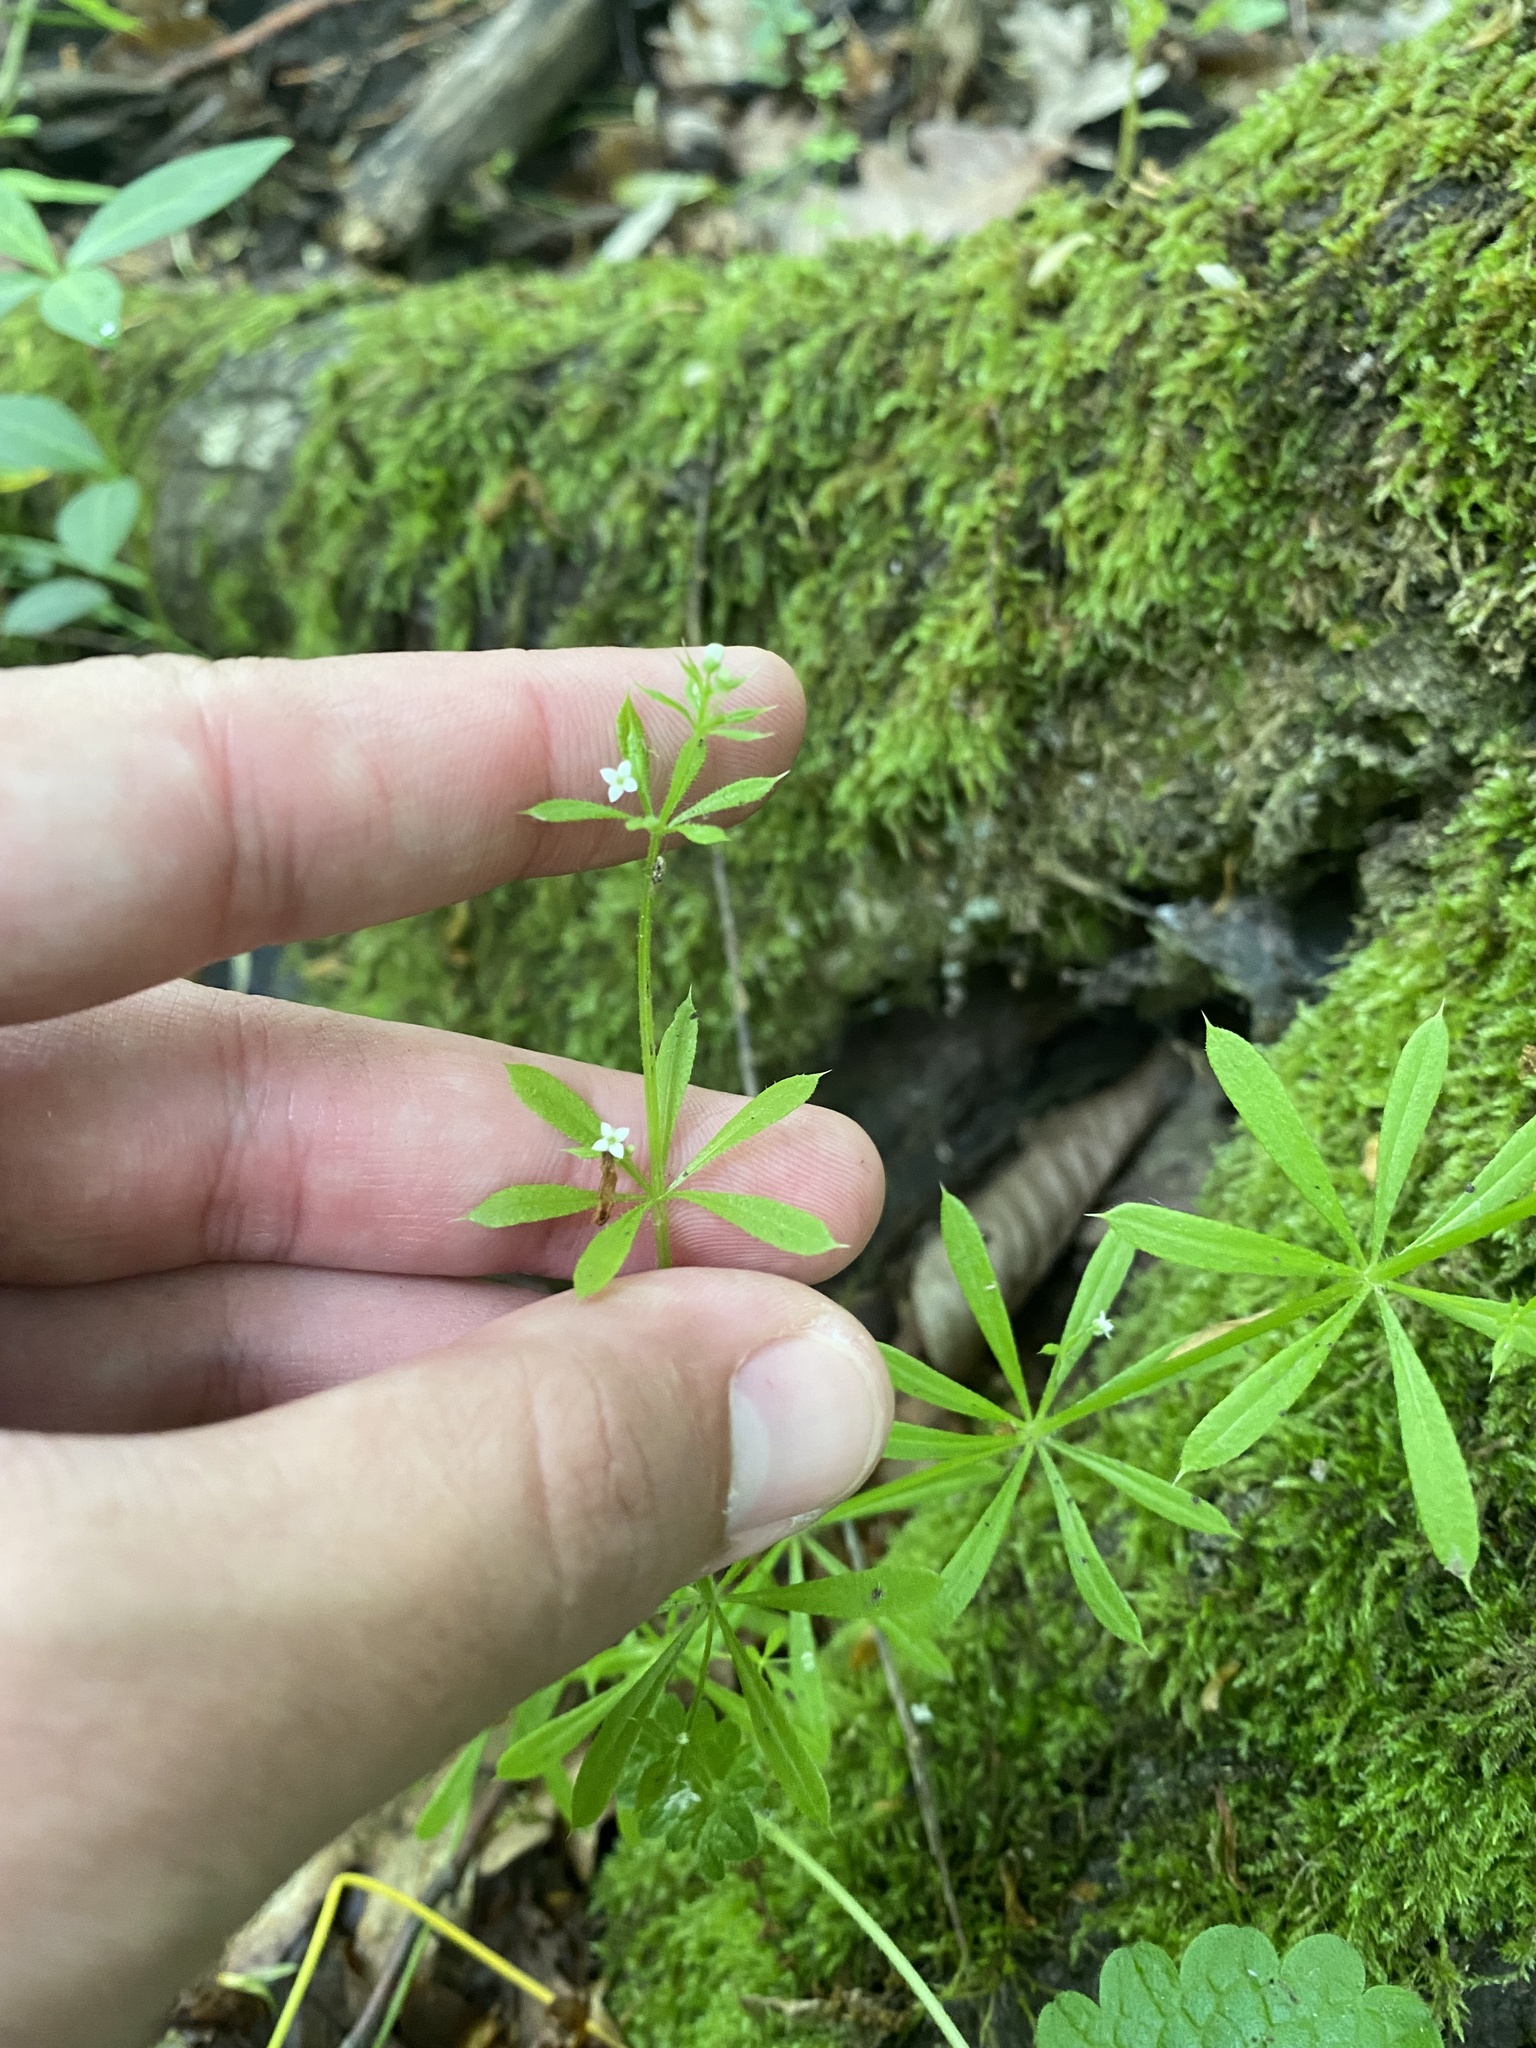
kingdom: Plantae
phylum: Tracheophyta
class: Magnoliopsida
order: Gentianales
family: Rubiaceae
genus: Galium
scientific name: Galium aparine
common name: Cleavers
